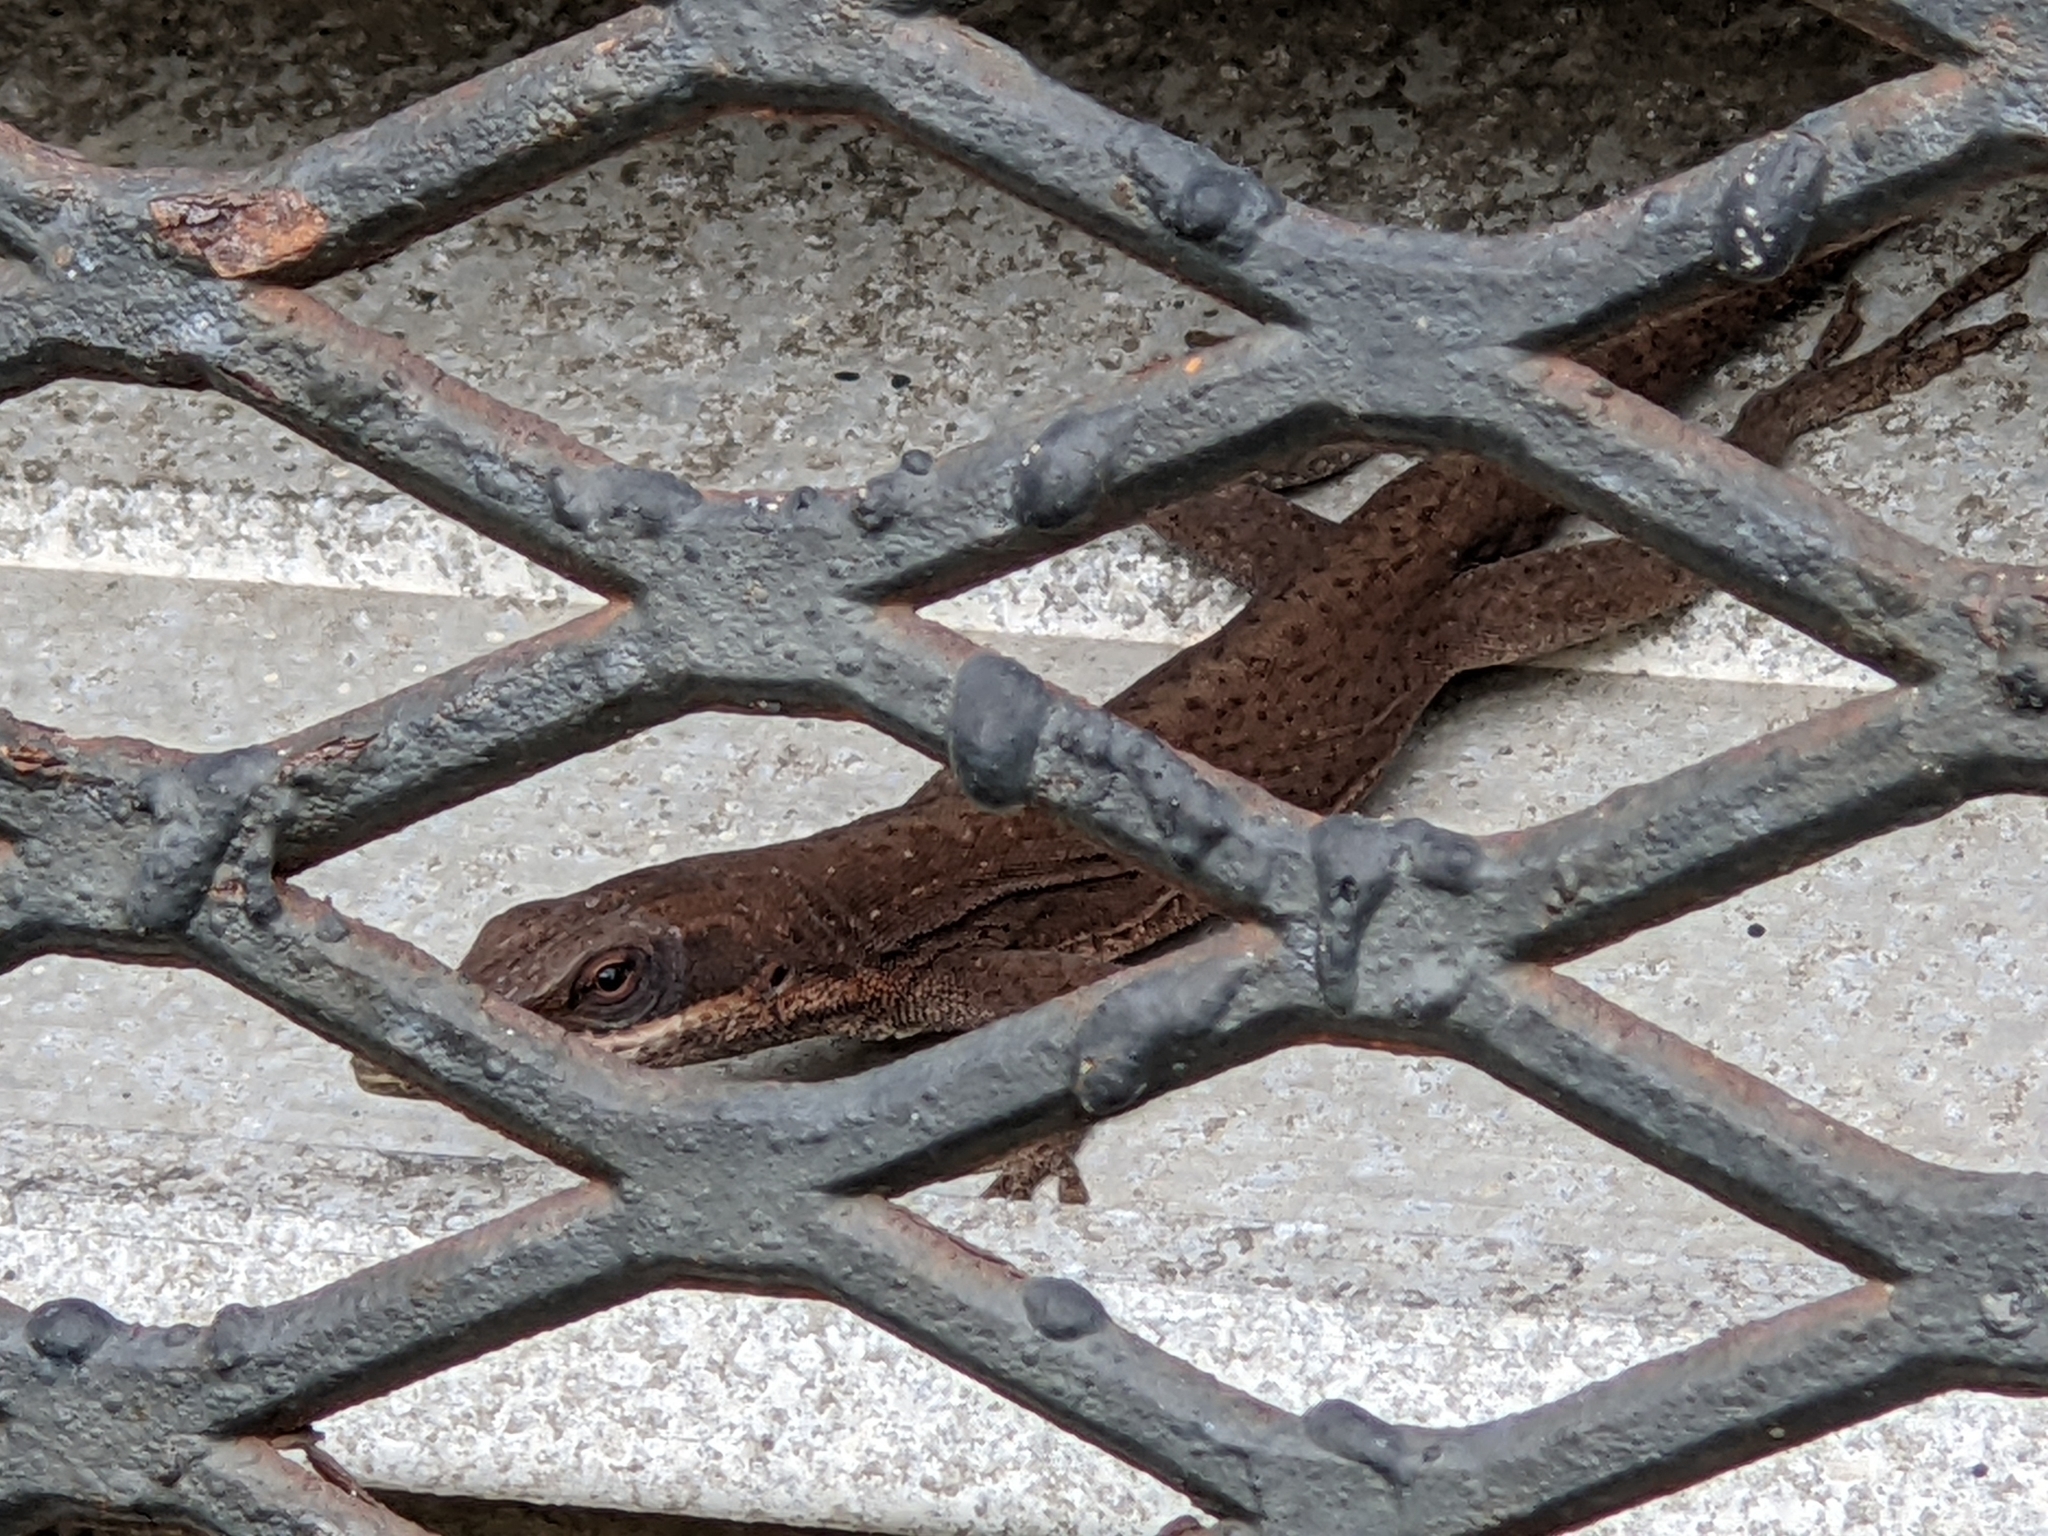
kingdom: Animalia
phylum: Chordata
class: Squamata
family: Dactyloidae
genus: Anolis
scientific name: Anolis carolinensis
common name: Green anole
